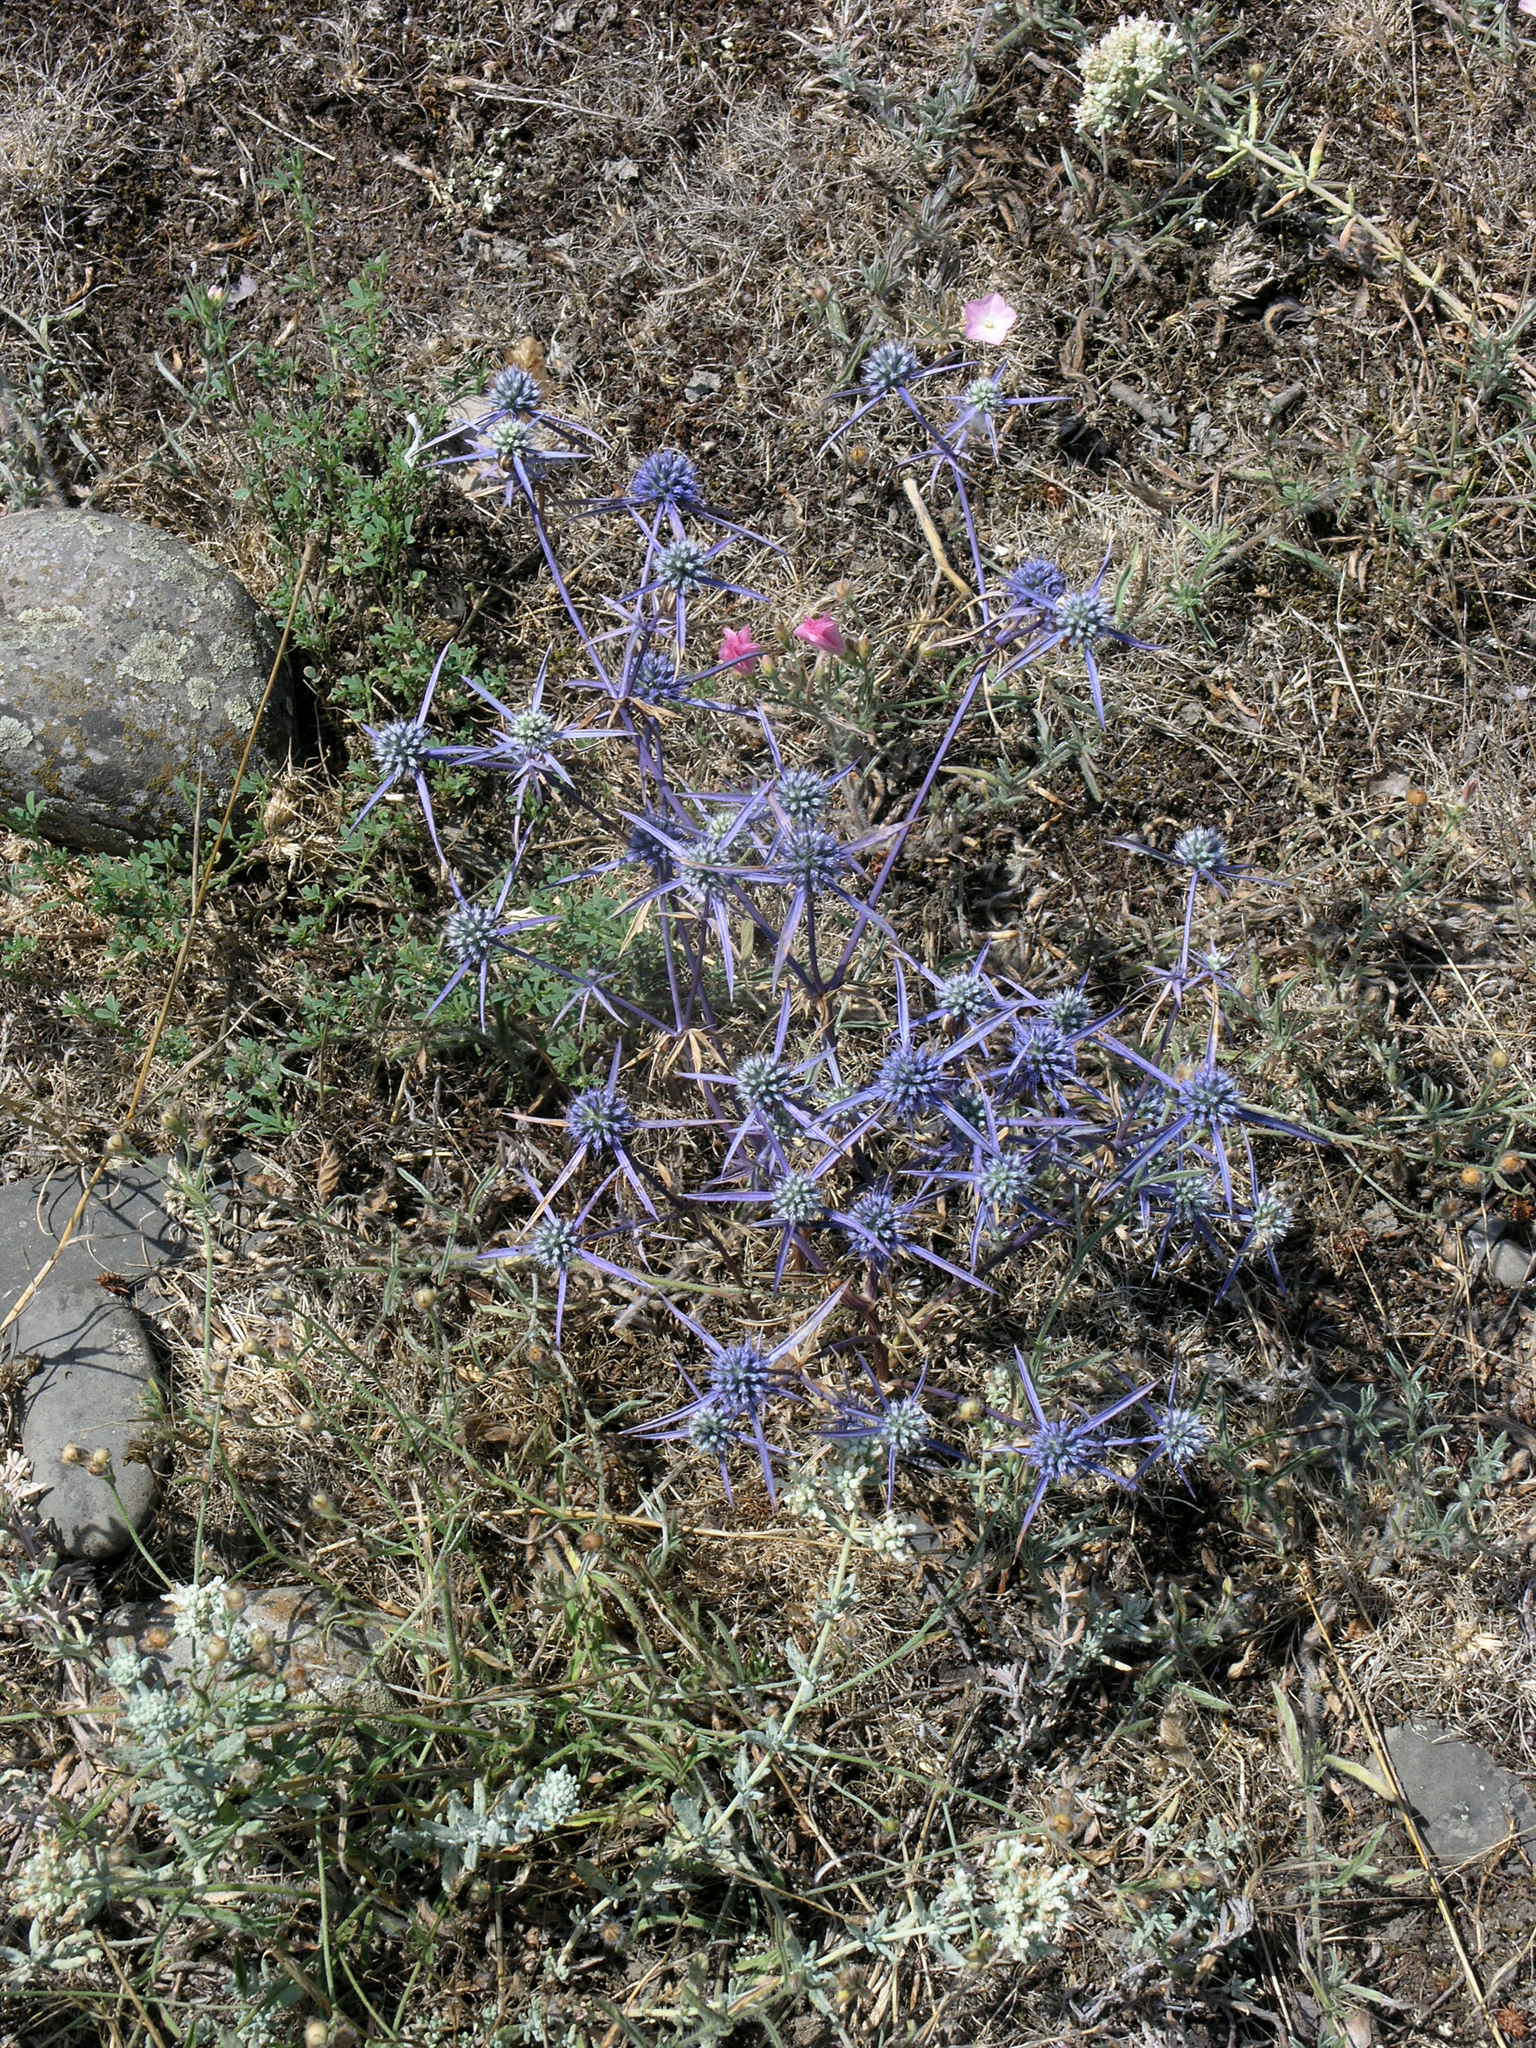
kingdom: Plantae
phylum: Tracheophyta
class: Magnoliopsida
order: Apiales
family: Apiaceae
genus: Eryngium
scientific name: Eryngium caeruleum
